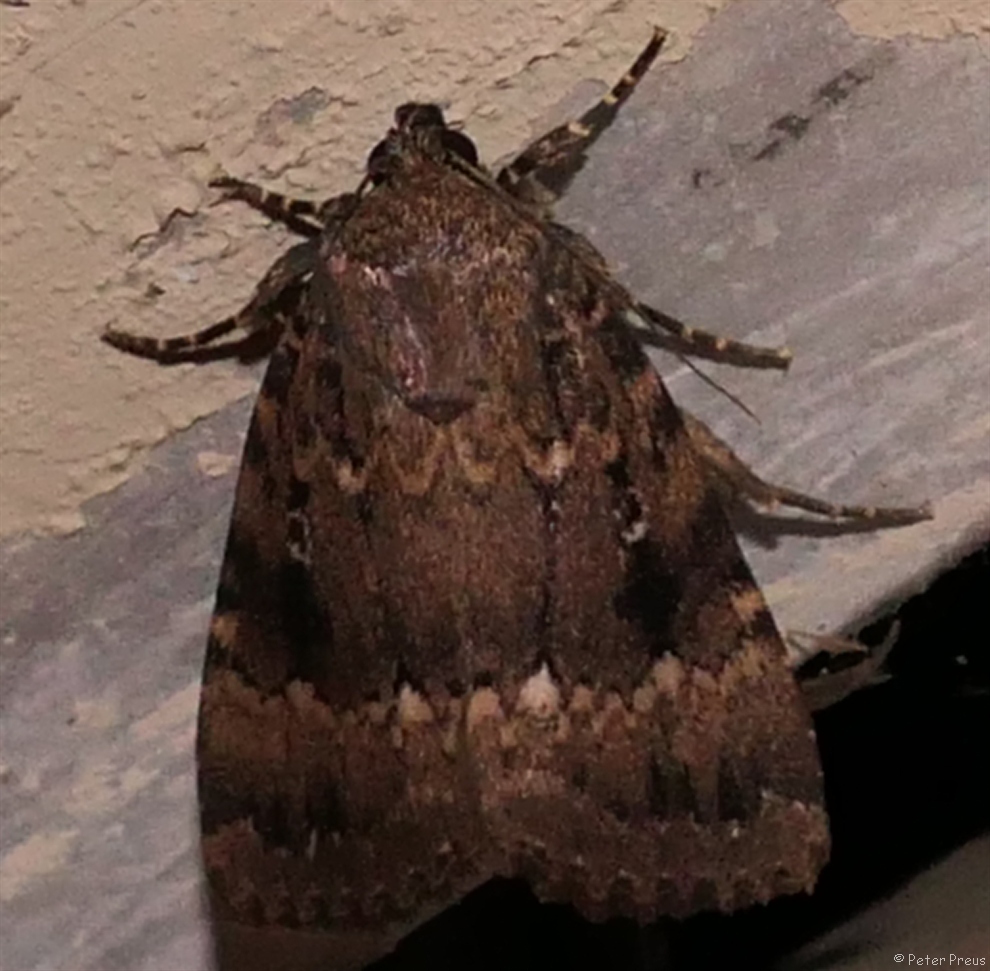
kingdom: Animalia
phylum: Arthropoda
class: Insecta
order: Lepidoptera
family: Noctuidae
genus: Amphipyra
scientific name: Amphipyra pyramidea
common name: Copper underwing
